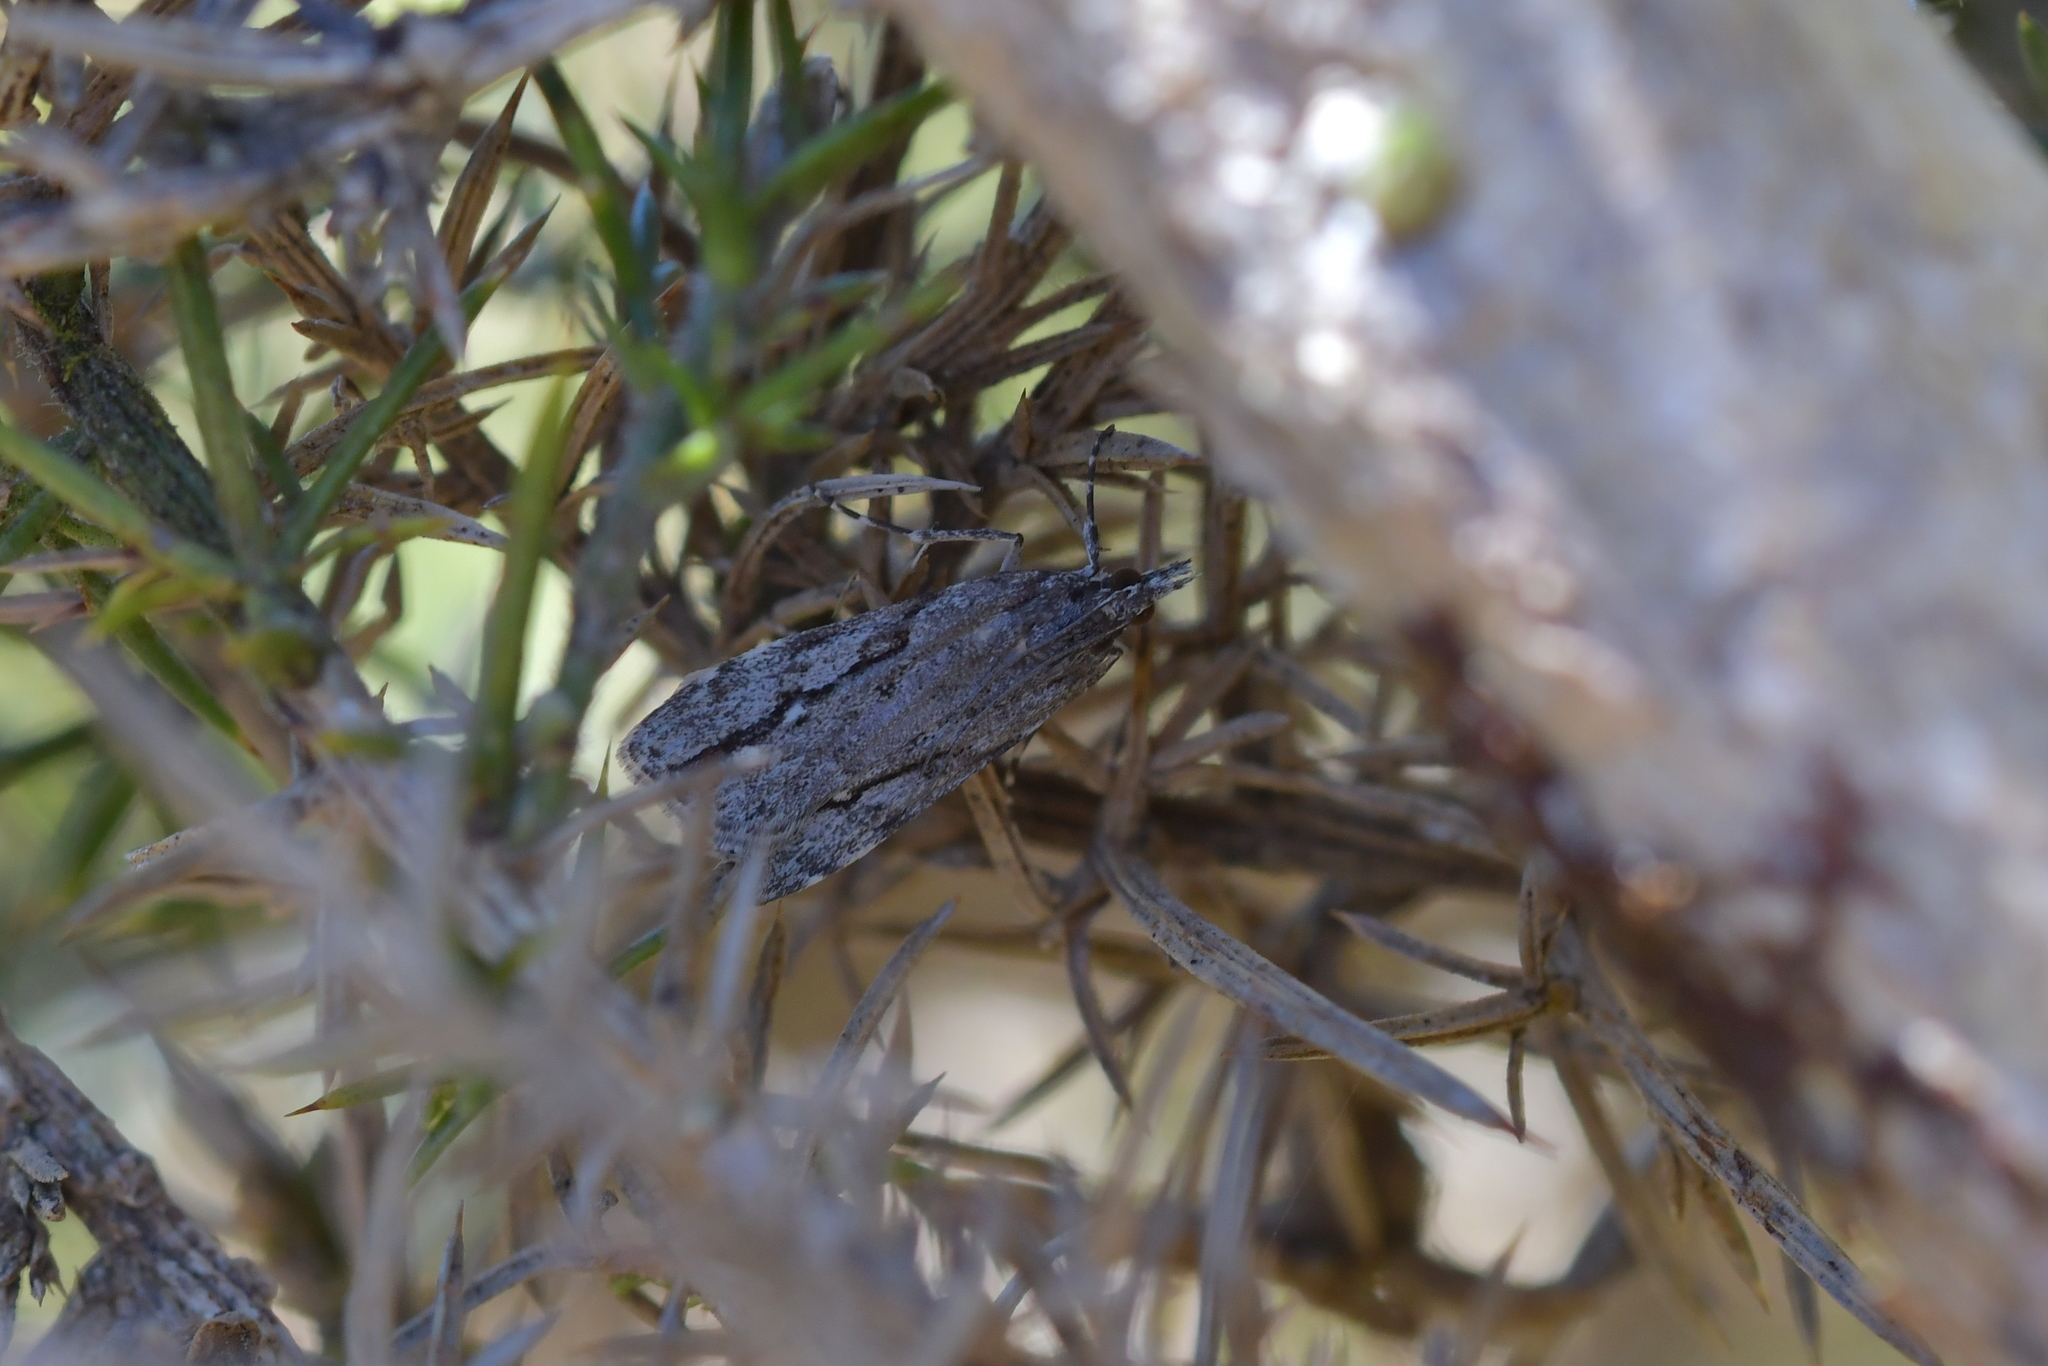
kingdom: Animalia
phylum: Arthropoda
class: Insecta
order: Lepidoptera
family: Crambidae
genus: Eudonia
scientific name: Eudonia bisinualis
